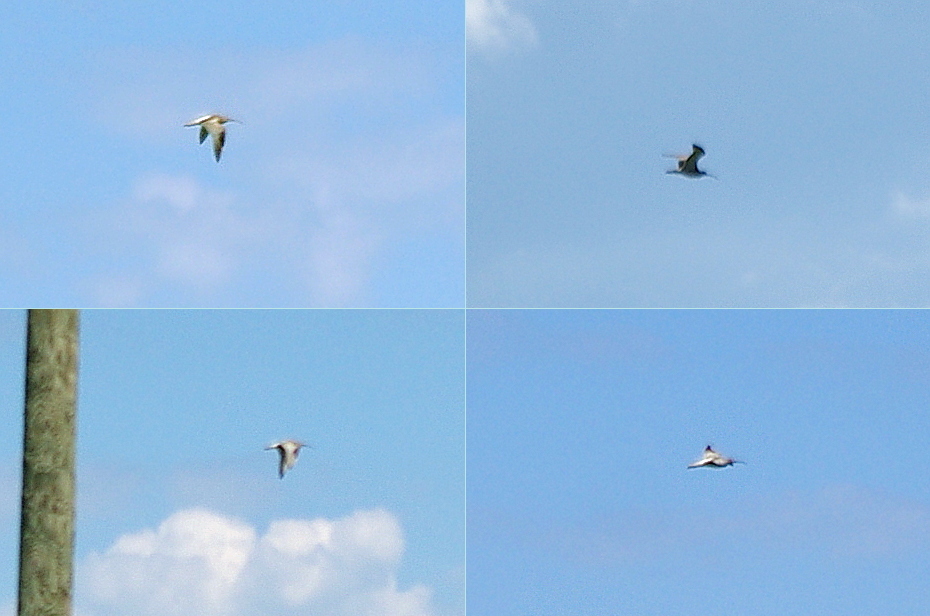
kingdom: Animalia
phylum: Chordata
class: Aves
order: Charadriiformes
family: Scolopacidae
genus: Numenius
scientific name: Numenius arquata
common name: Eurasian curlew
